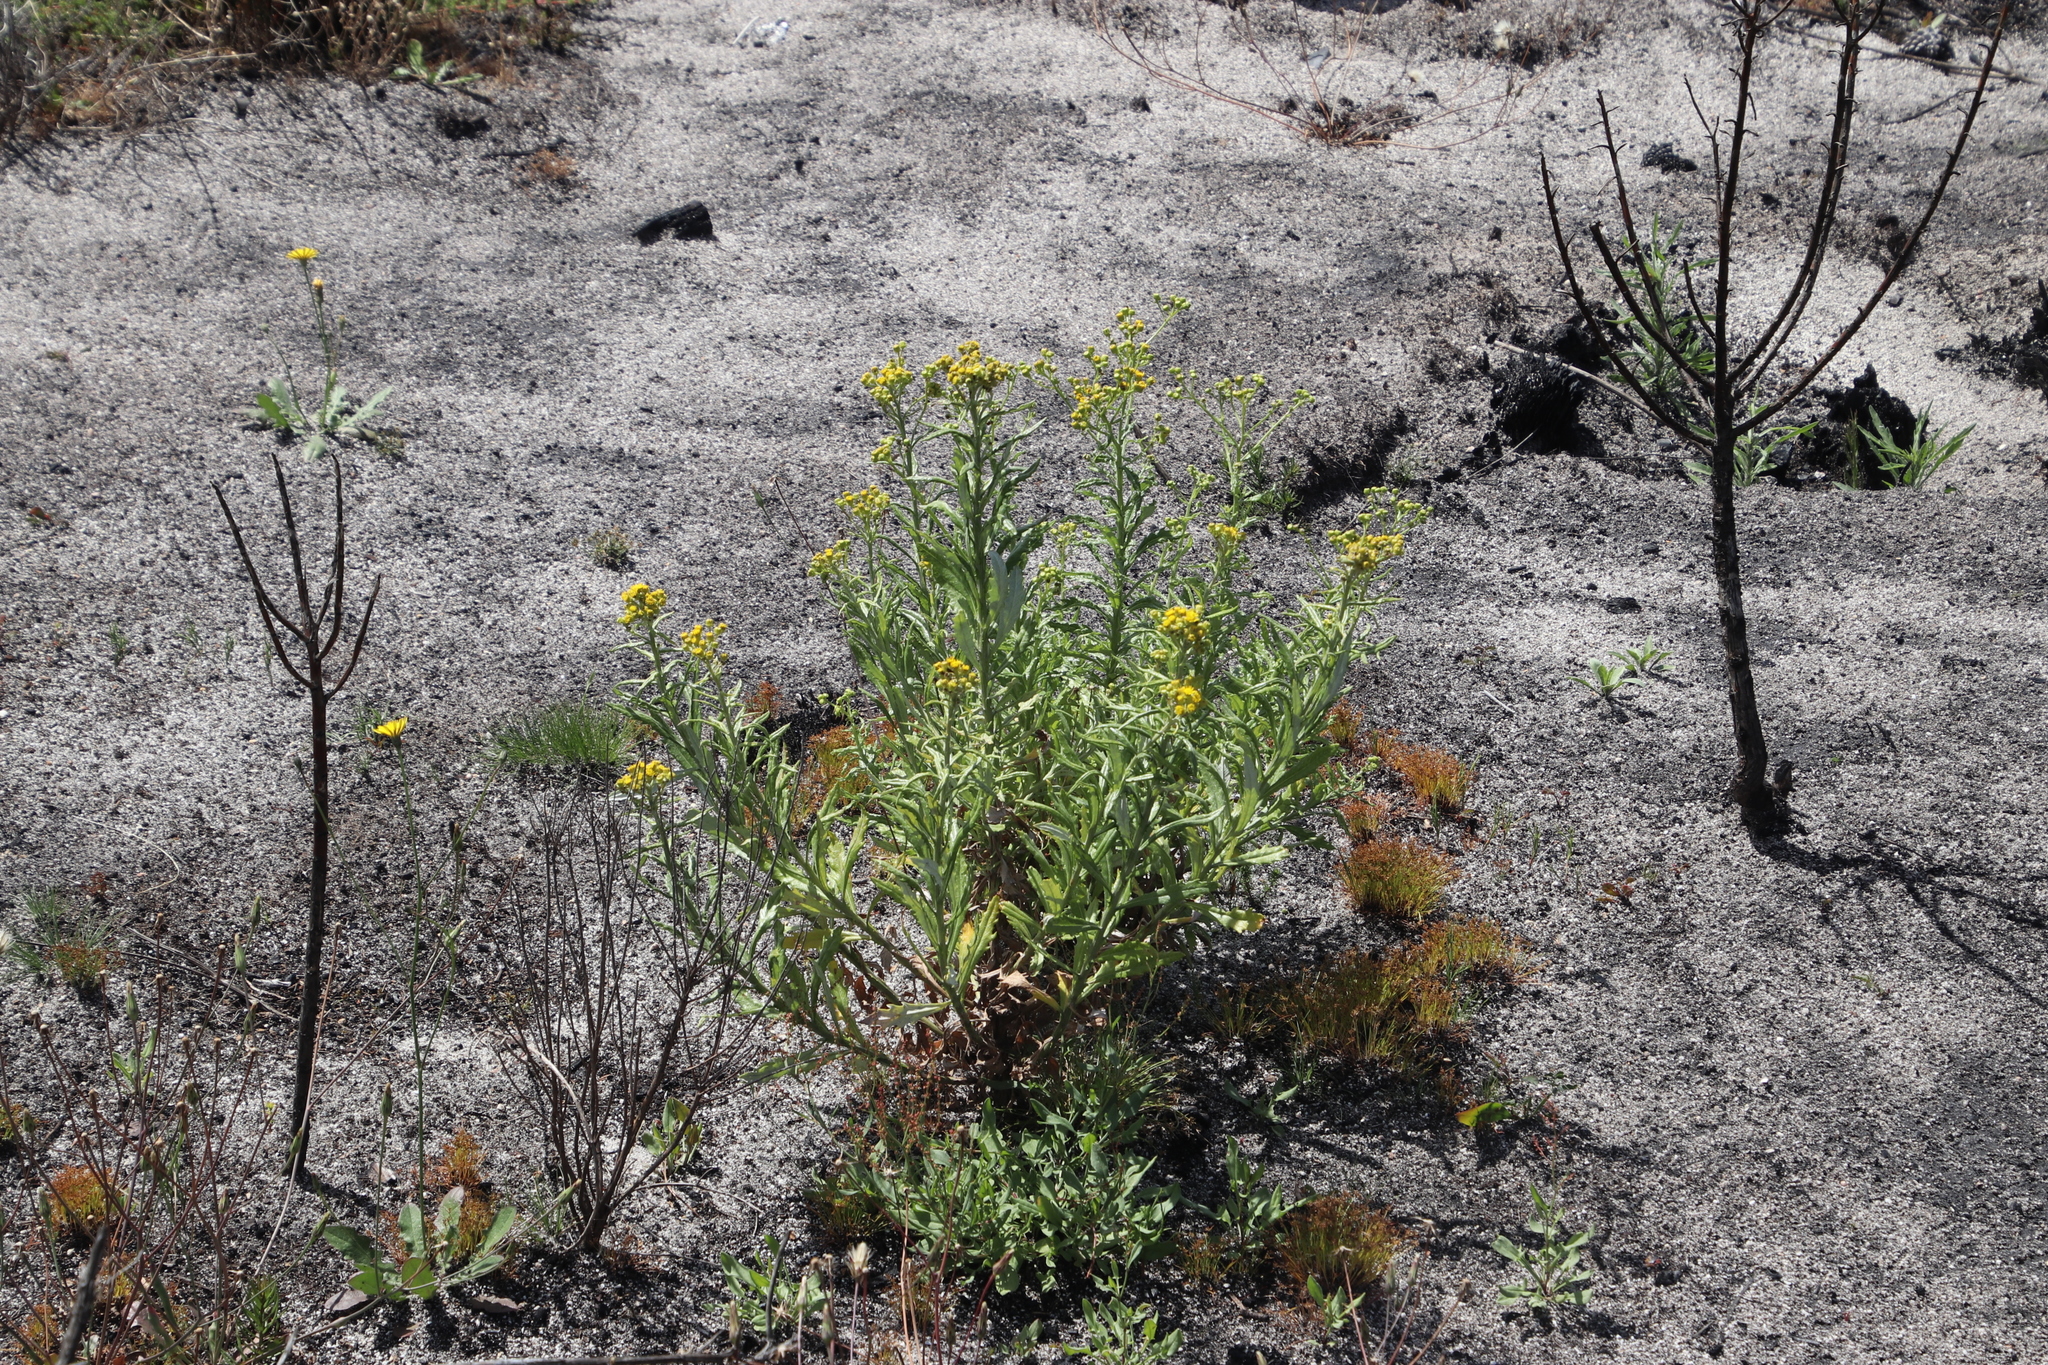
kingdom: Plantae
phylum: Tracheophyta
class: Magnoliopsida
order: Asterales
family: Asteraceae
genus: Senecio
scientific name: Senecio pterophorus
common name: Shoddy ragwort
